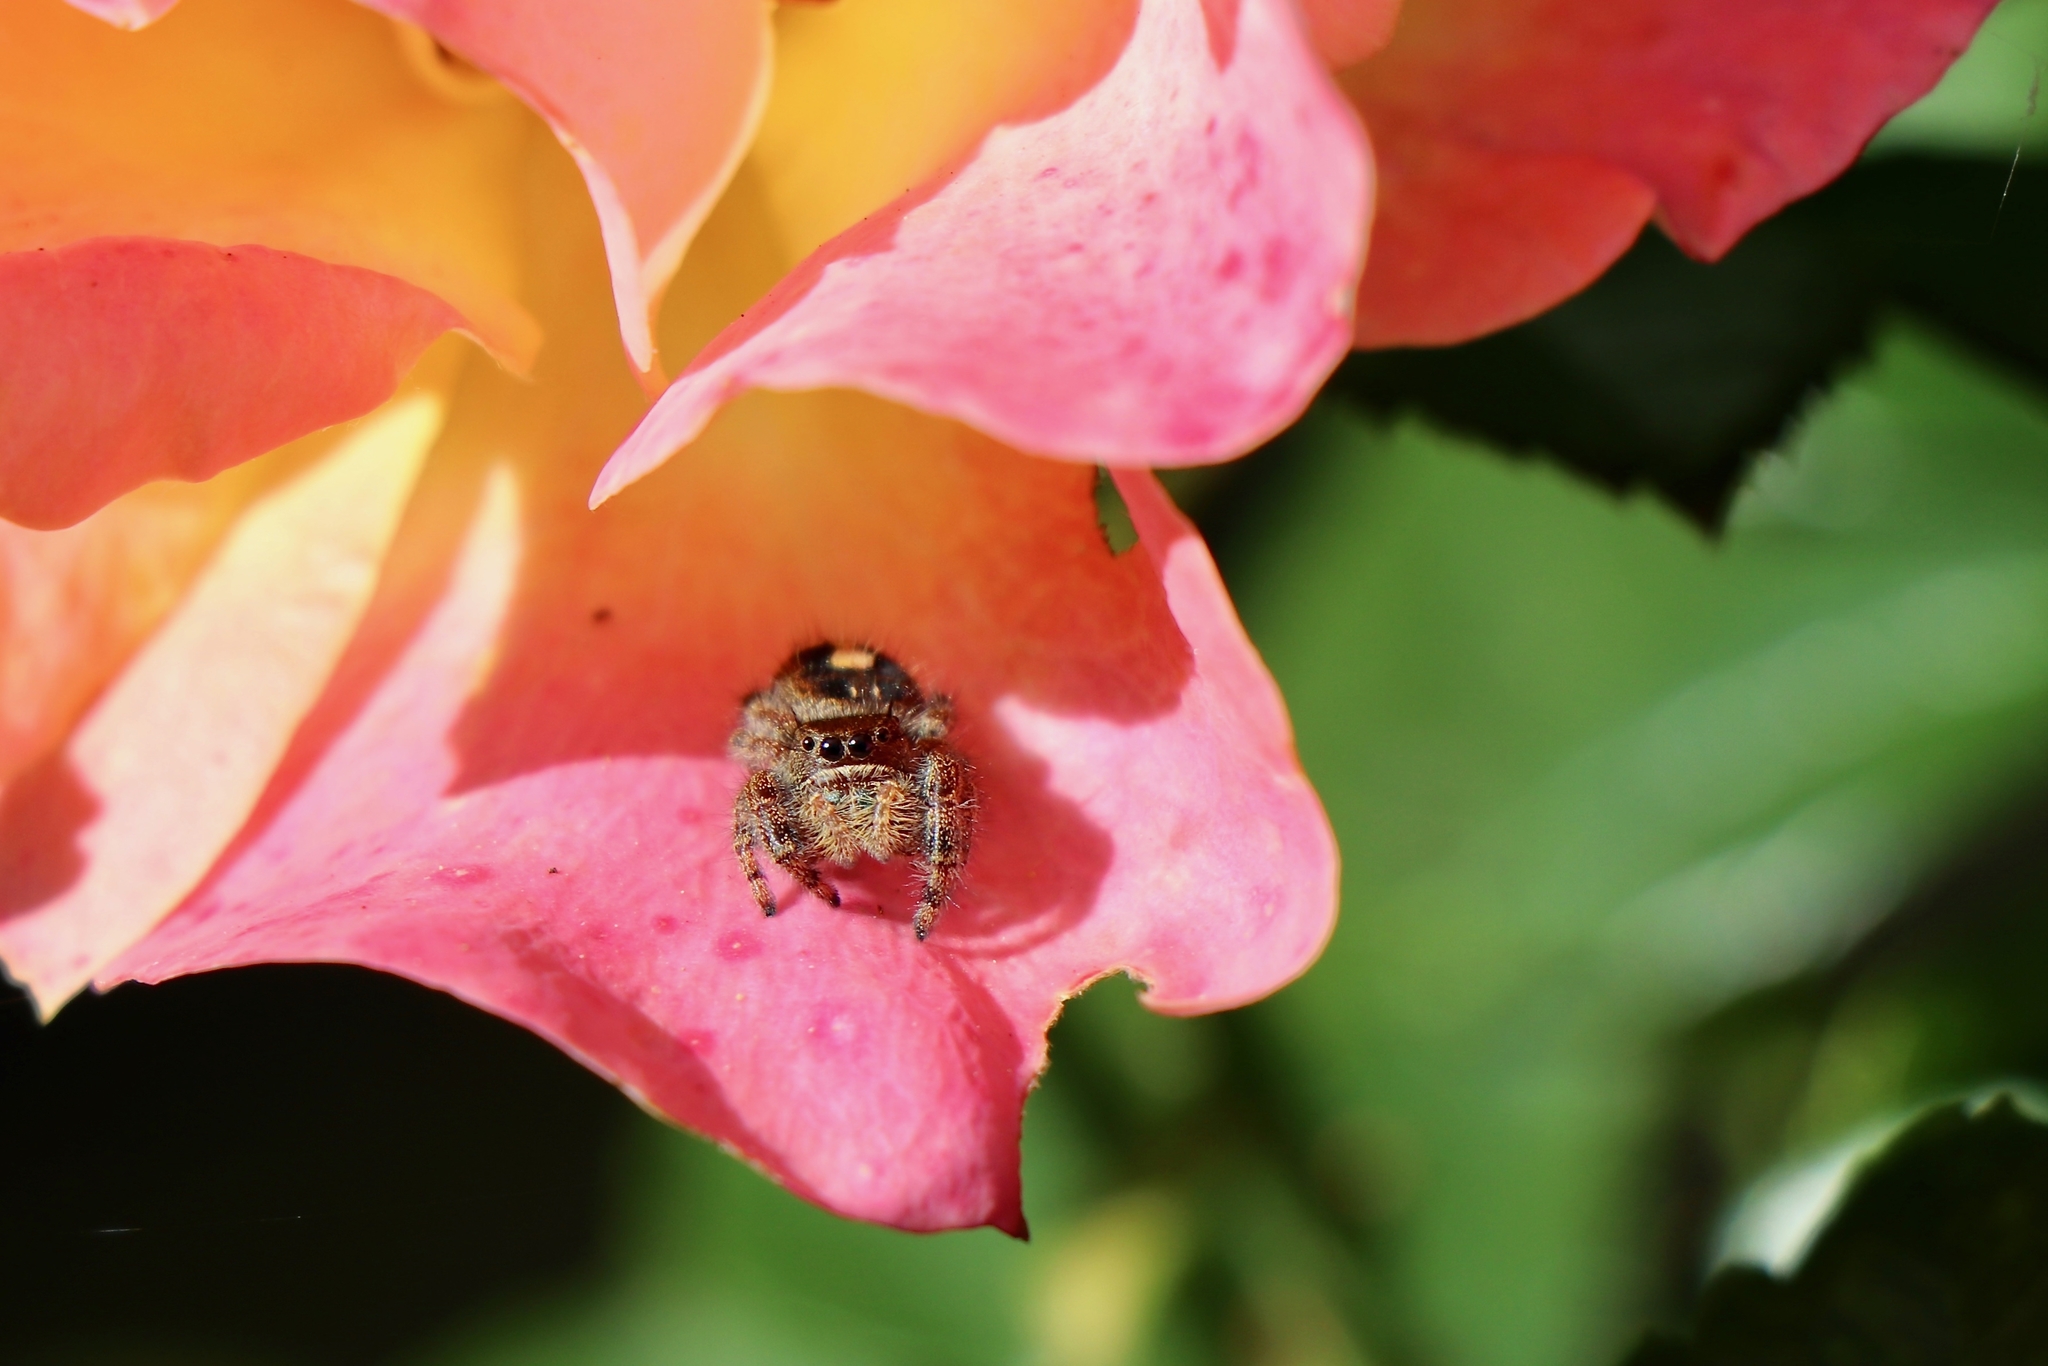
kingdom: Animalia
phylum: Arthropoda
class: Arachnida
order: Araneae
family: Salticidae
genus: Phidippus
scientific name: Phidippus audax
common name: Bold jumper
